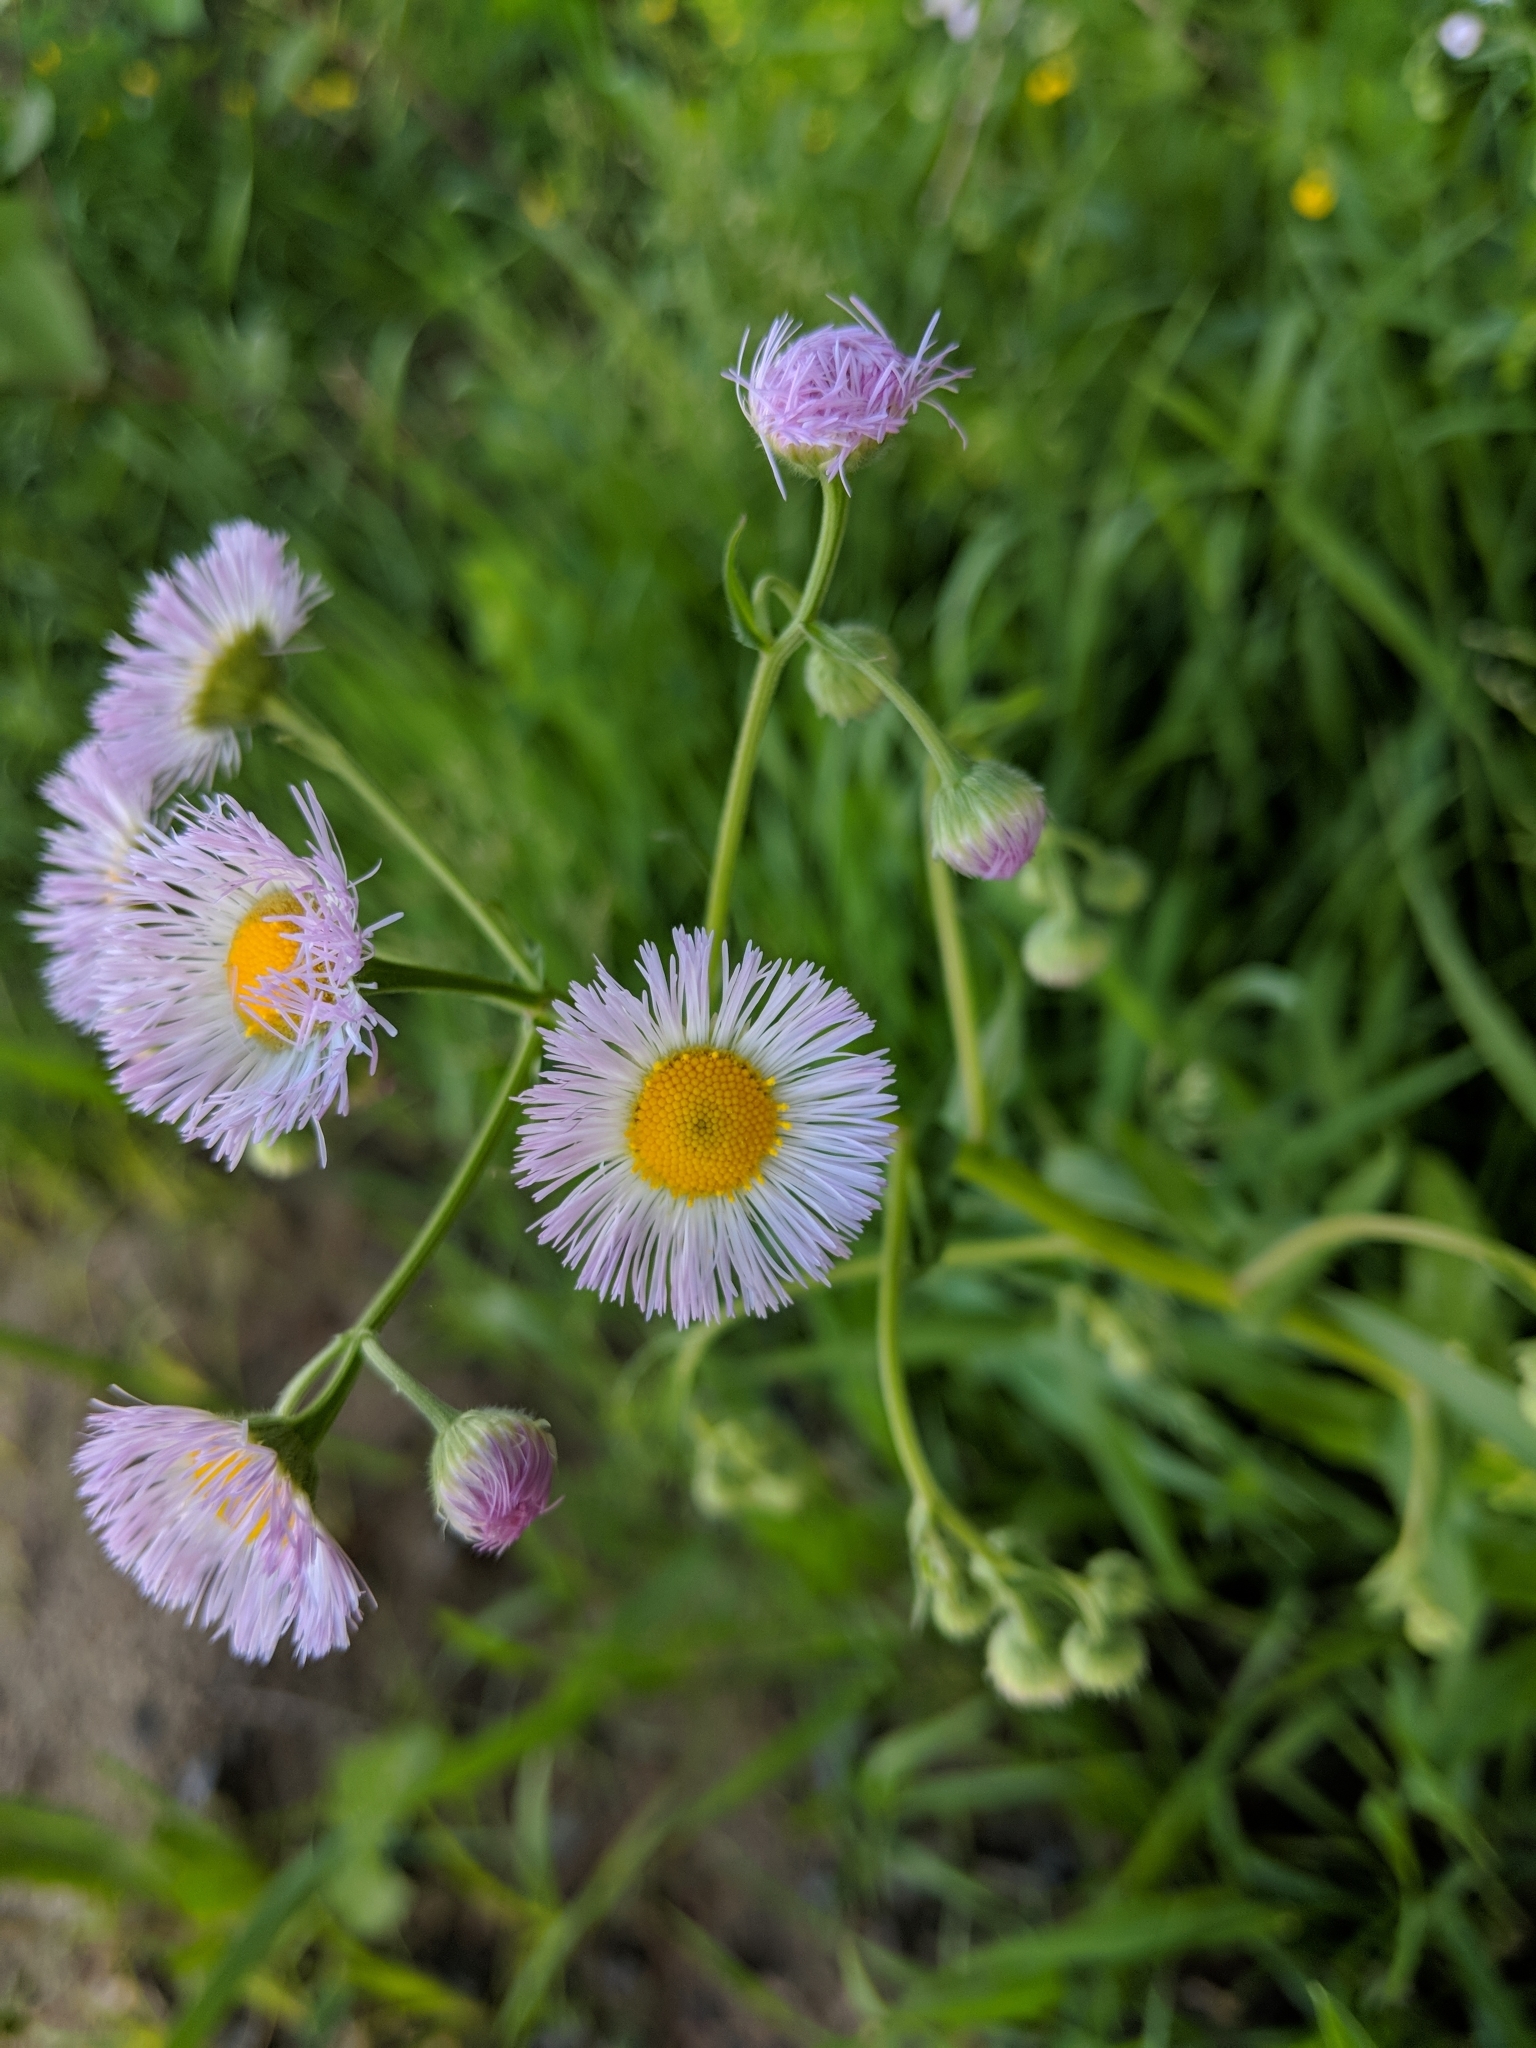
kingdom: Plantae
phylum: Tracheophyta
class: Magnoliopsida
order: Asterales
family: Asteraceae
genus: Erigeron
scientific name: Erigeron philadelphicus
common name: Robin's-plantain
